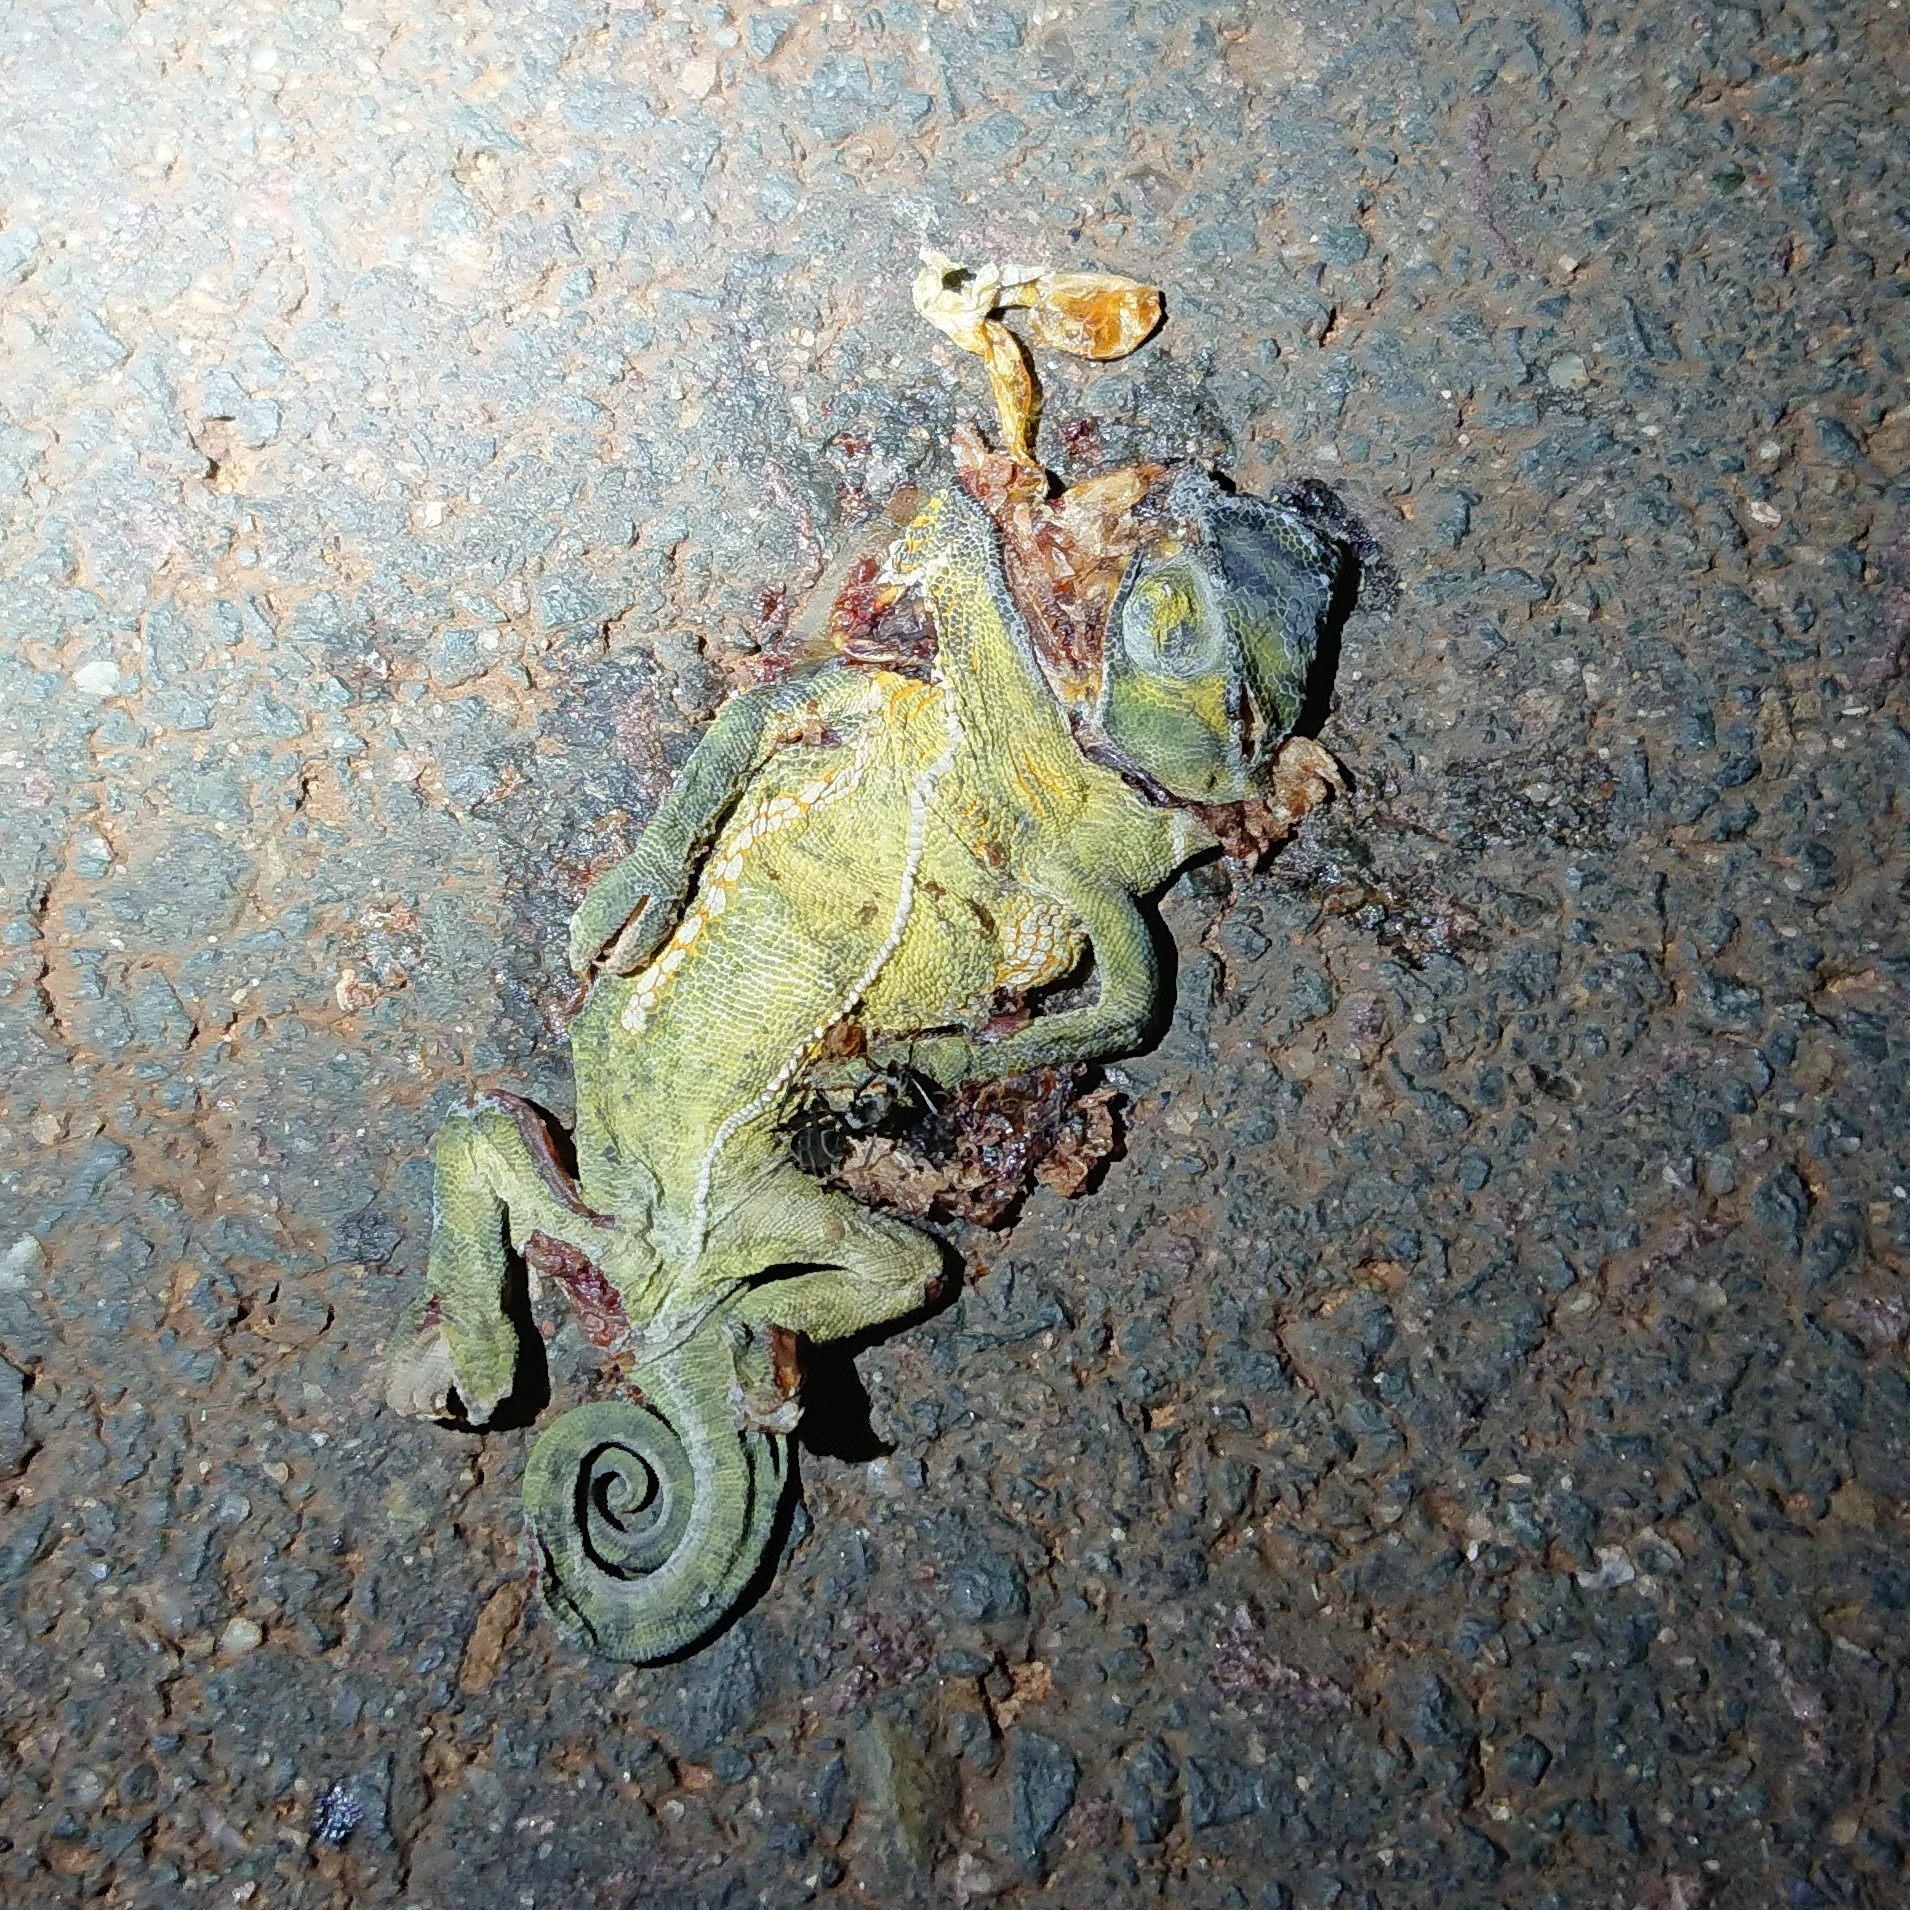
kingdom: Animalia
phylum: Chordata
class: Squamata
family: Chamaeleonidae
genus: Chamaeleo
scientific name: Chamaeleo dilepis
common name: Flapneck chameleon
